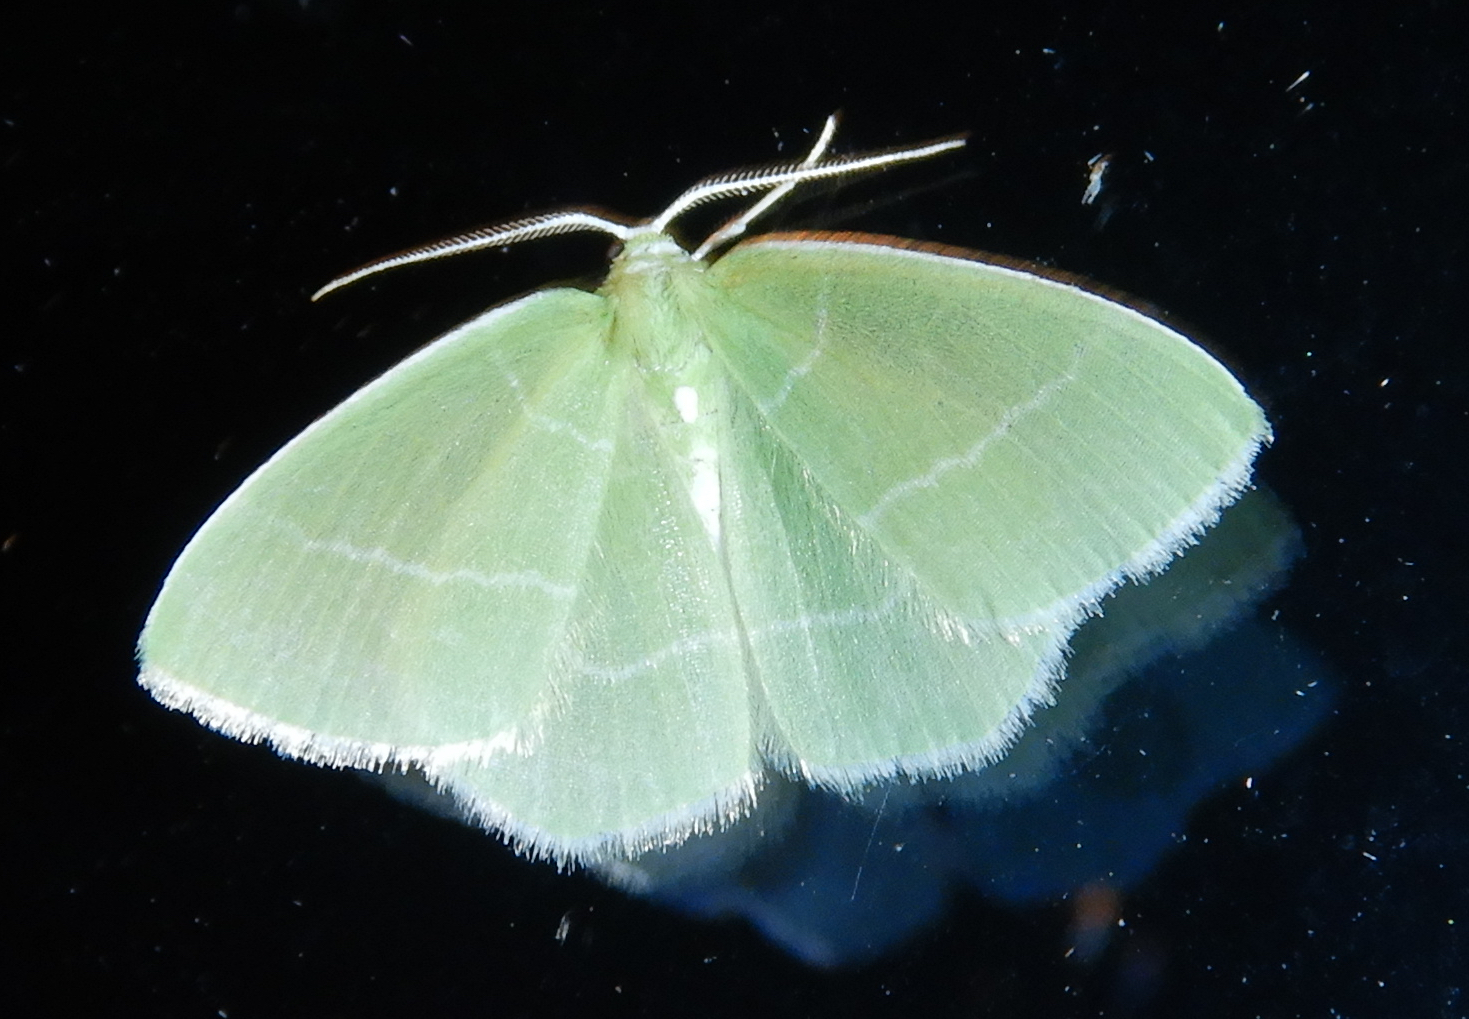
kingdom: Animalia
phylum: Arthropoda
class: Insecta
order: Lepidoptera
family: Geometridae
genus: Nemoria
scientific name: Nemoria mimosaria
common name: White-fringed emerald
